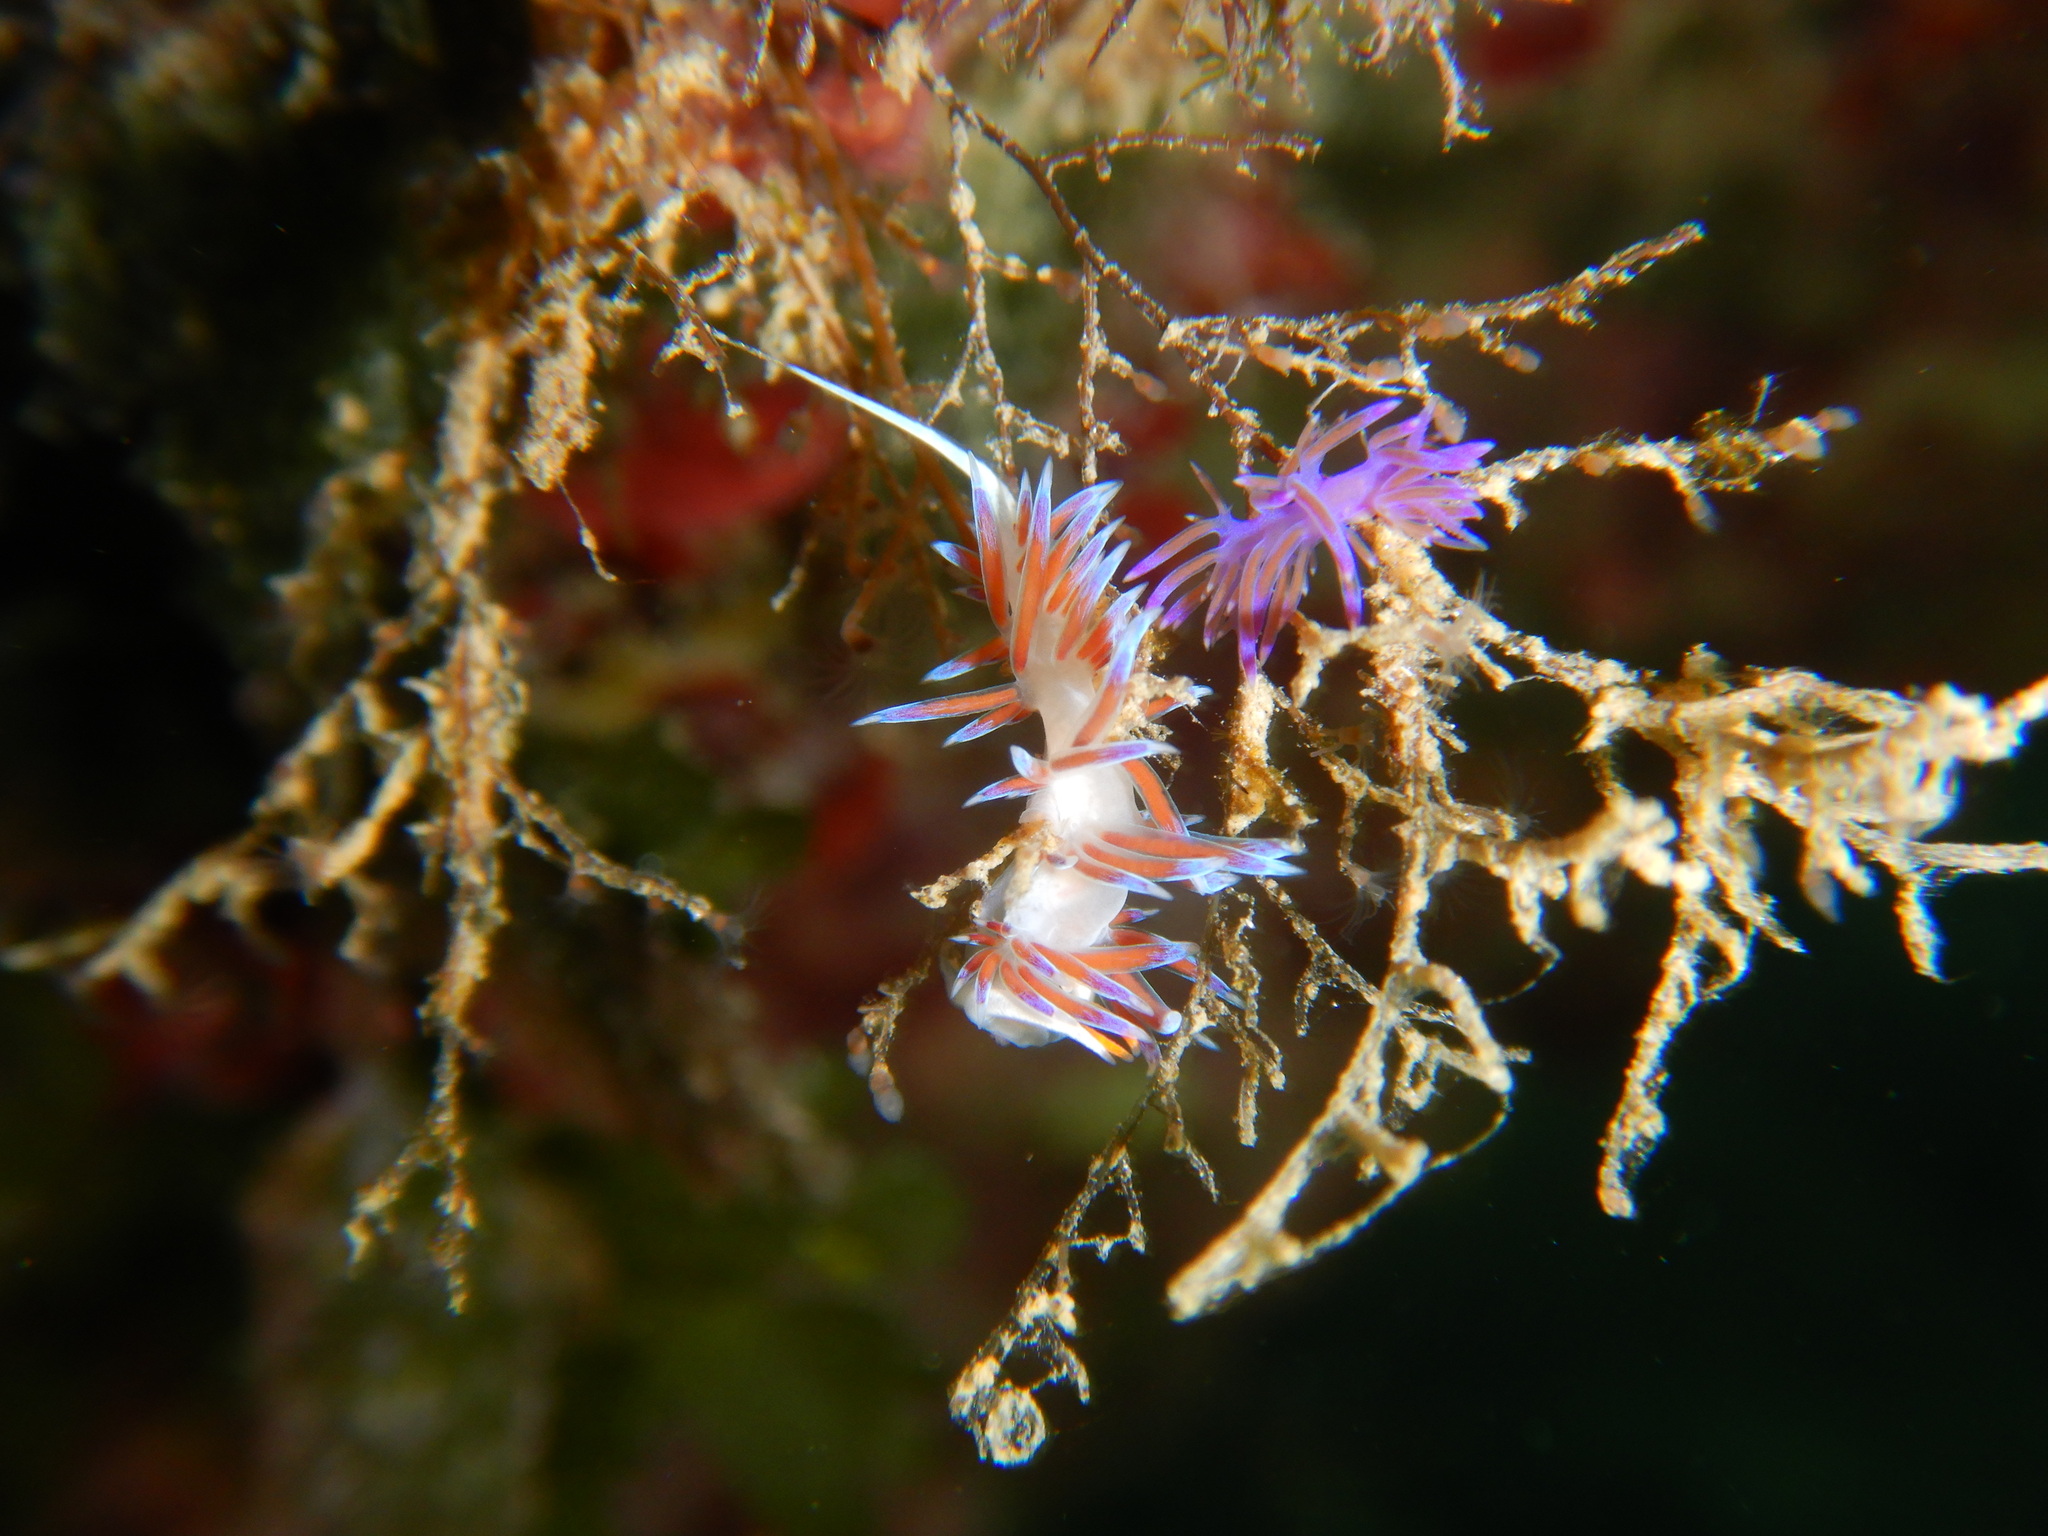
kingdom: Animalia
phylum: Mollusca
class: Gastropoda
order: Nudibranchia
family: Facelinidae
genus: Cratena
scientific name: Cratena peregrina
